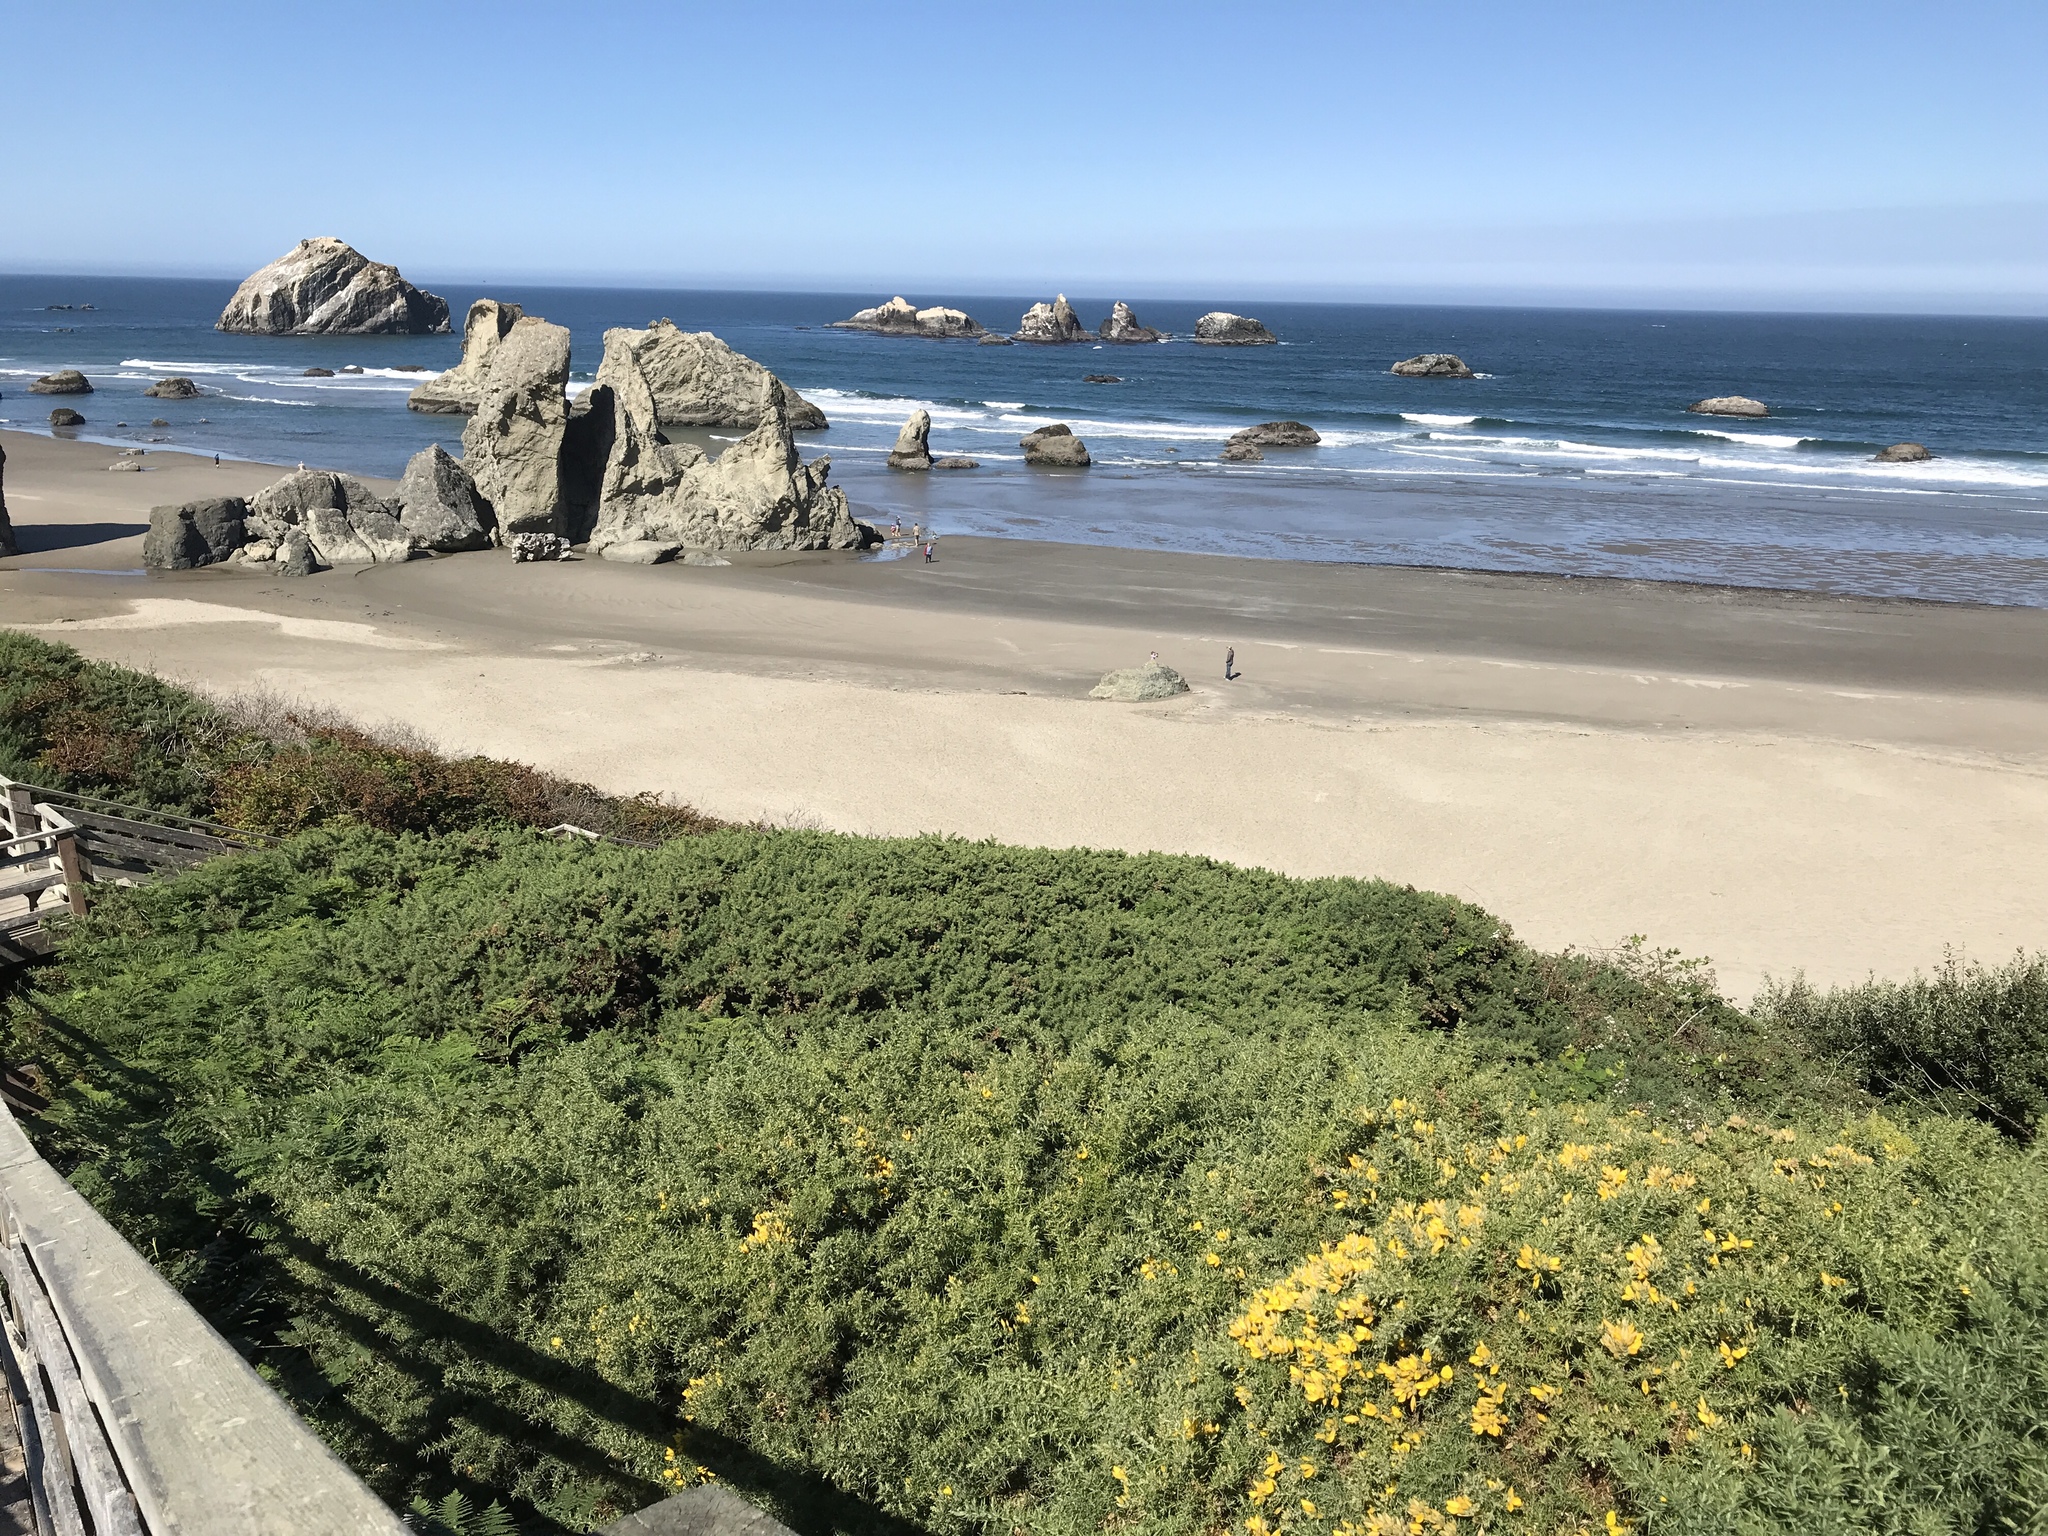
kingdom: Plantae
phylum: Tracheophyta
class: Magnoliopsida
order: Fabales
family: Fabaceae
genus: Ulex
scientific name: Ulex europaeus
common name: Common gorse
